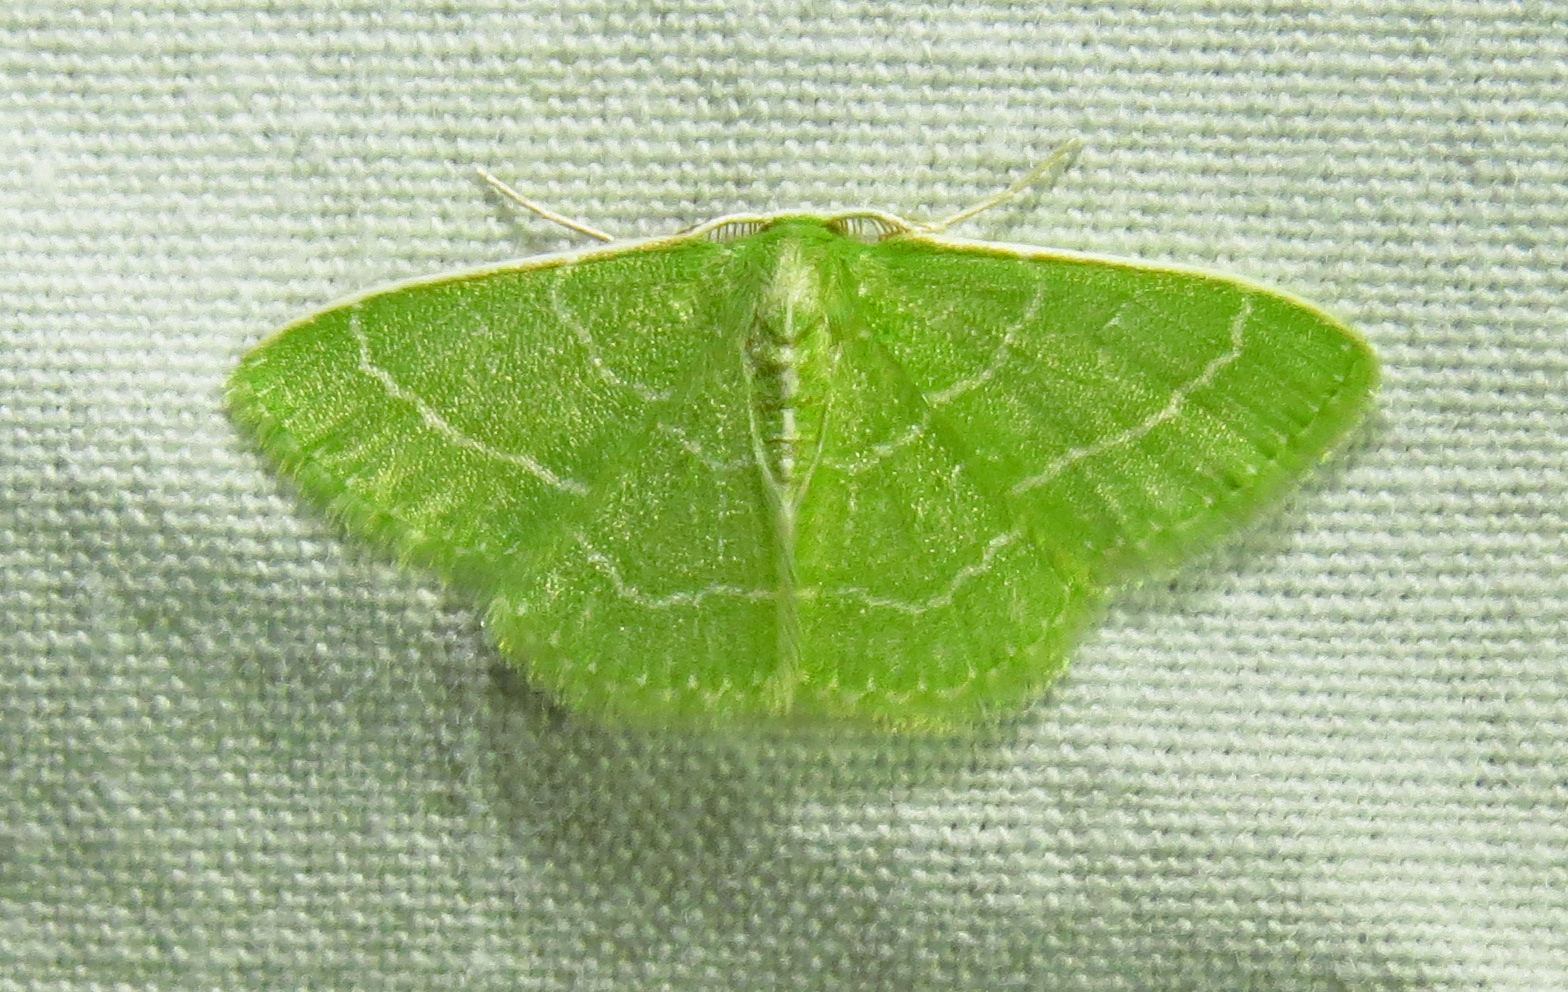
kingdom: Animalia
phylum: Arthropoda
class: Insecta
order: Lepidoptera
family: Geometridae
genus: Synchlora
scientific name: Synchlora aerata
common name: Wavy-lined emerald
